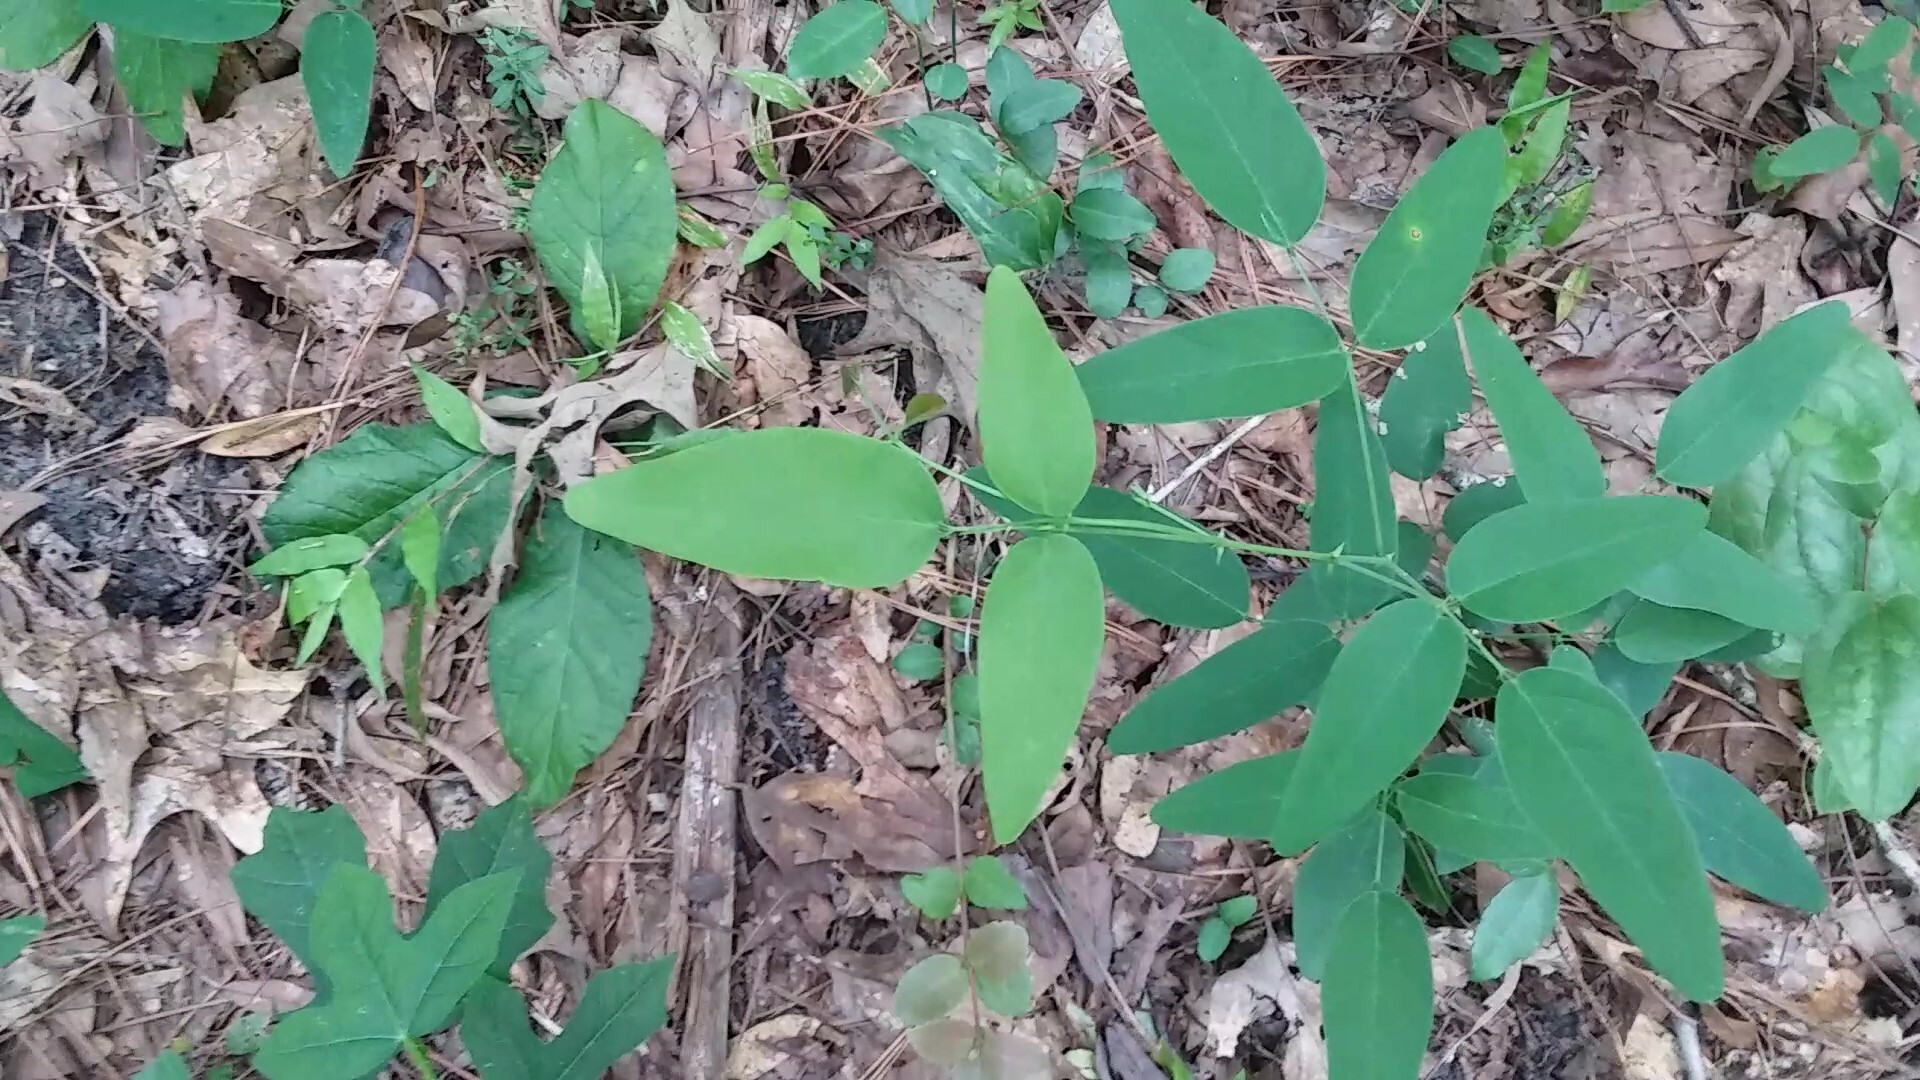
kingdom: Plantae
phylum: Tracheophyta
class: Magnoliopsida
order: Fabales
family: Fabaceae
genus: Clitoria
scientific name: Clitoria mariana
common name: Butterfly-pea
